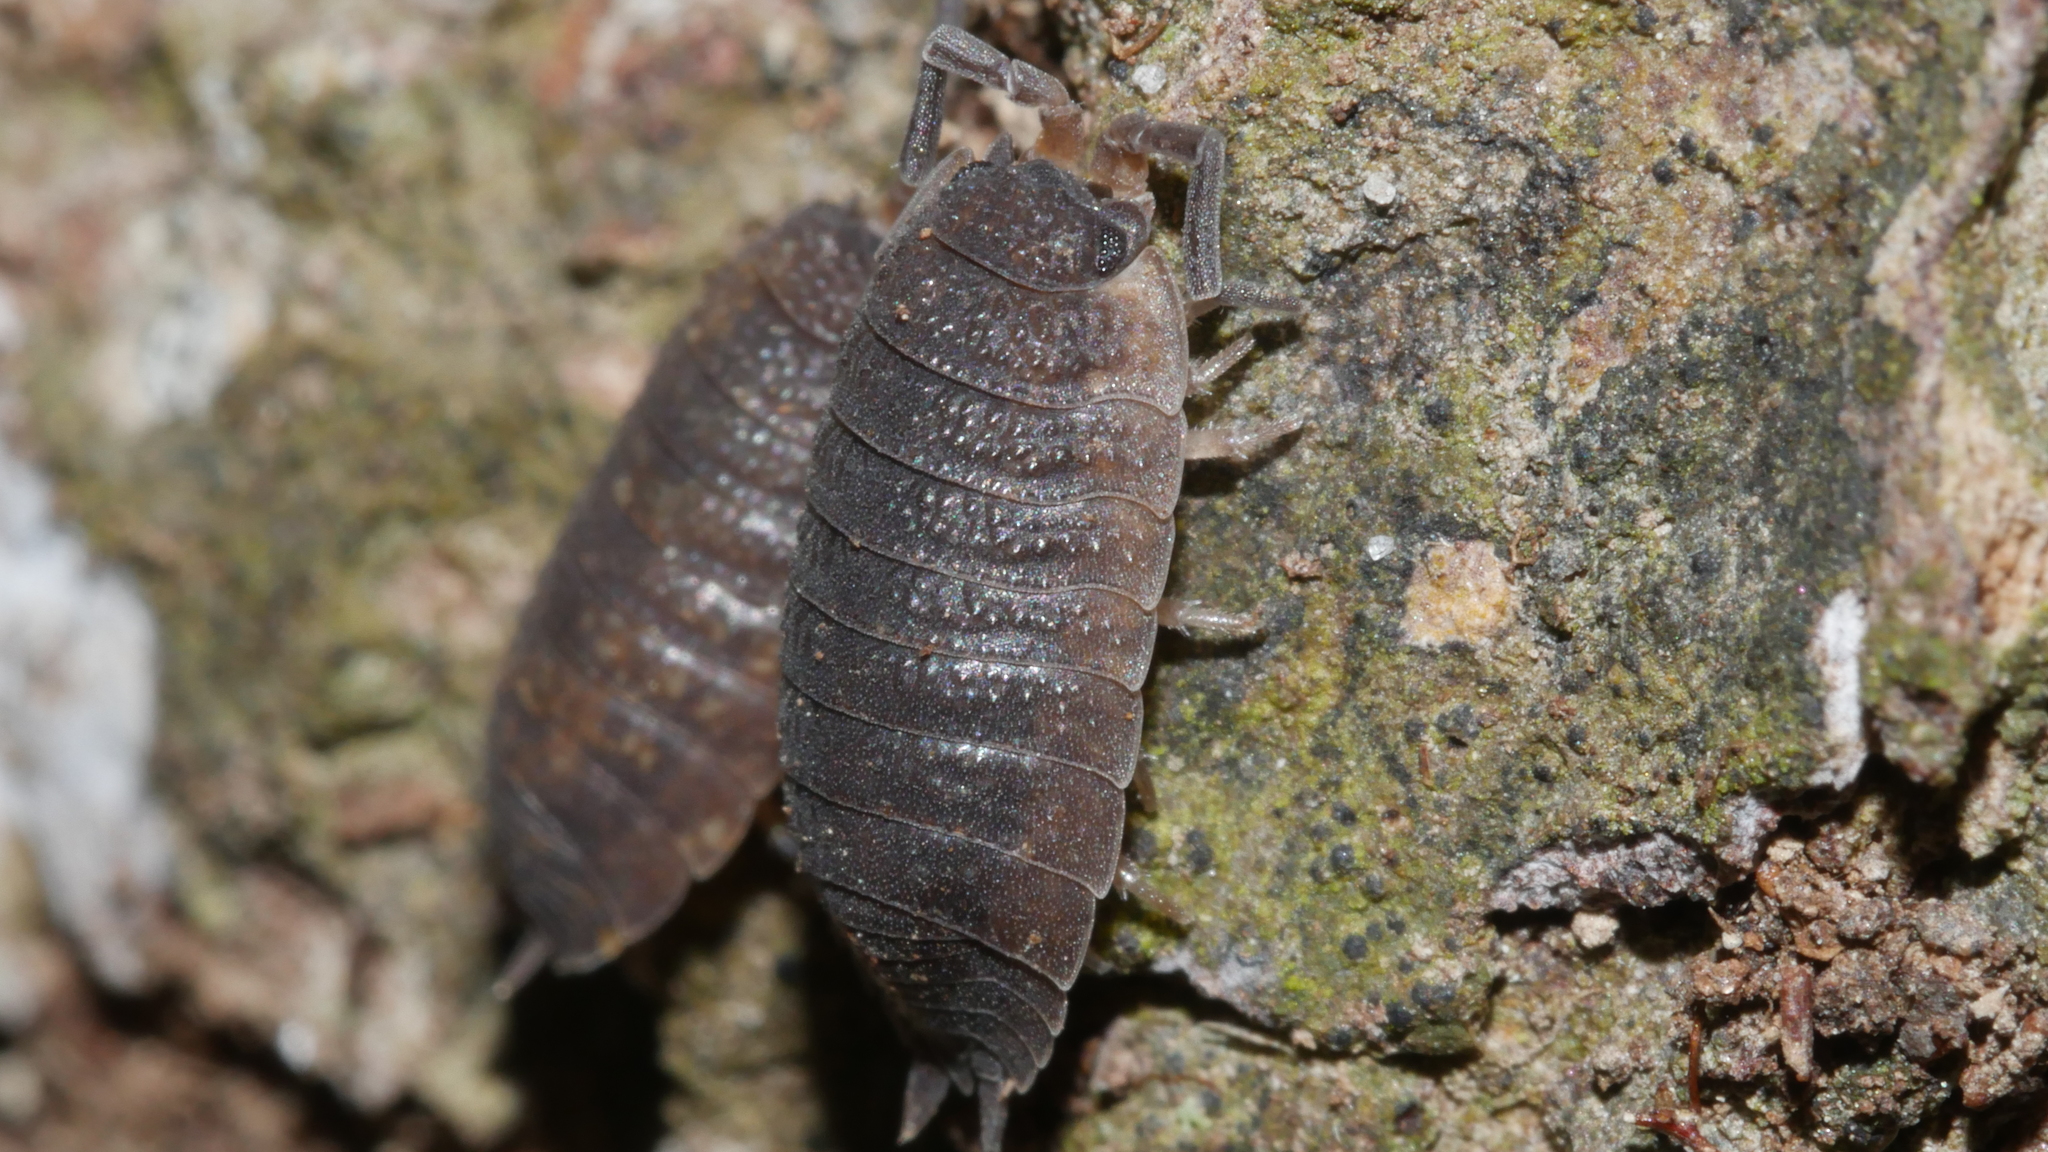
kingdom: Animalia
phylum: Arthropoda
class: Malacostraca
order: Isopoda
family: Porcellionidae
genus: Porcellio
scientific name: Porcellio scaber
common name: Common rough woodlouse
